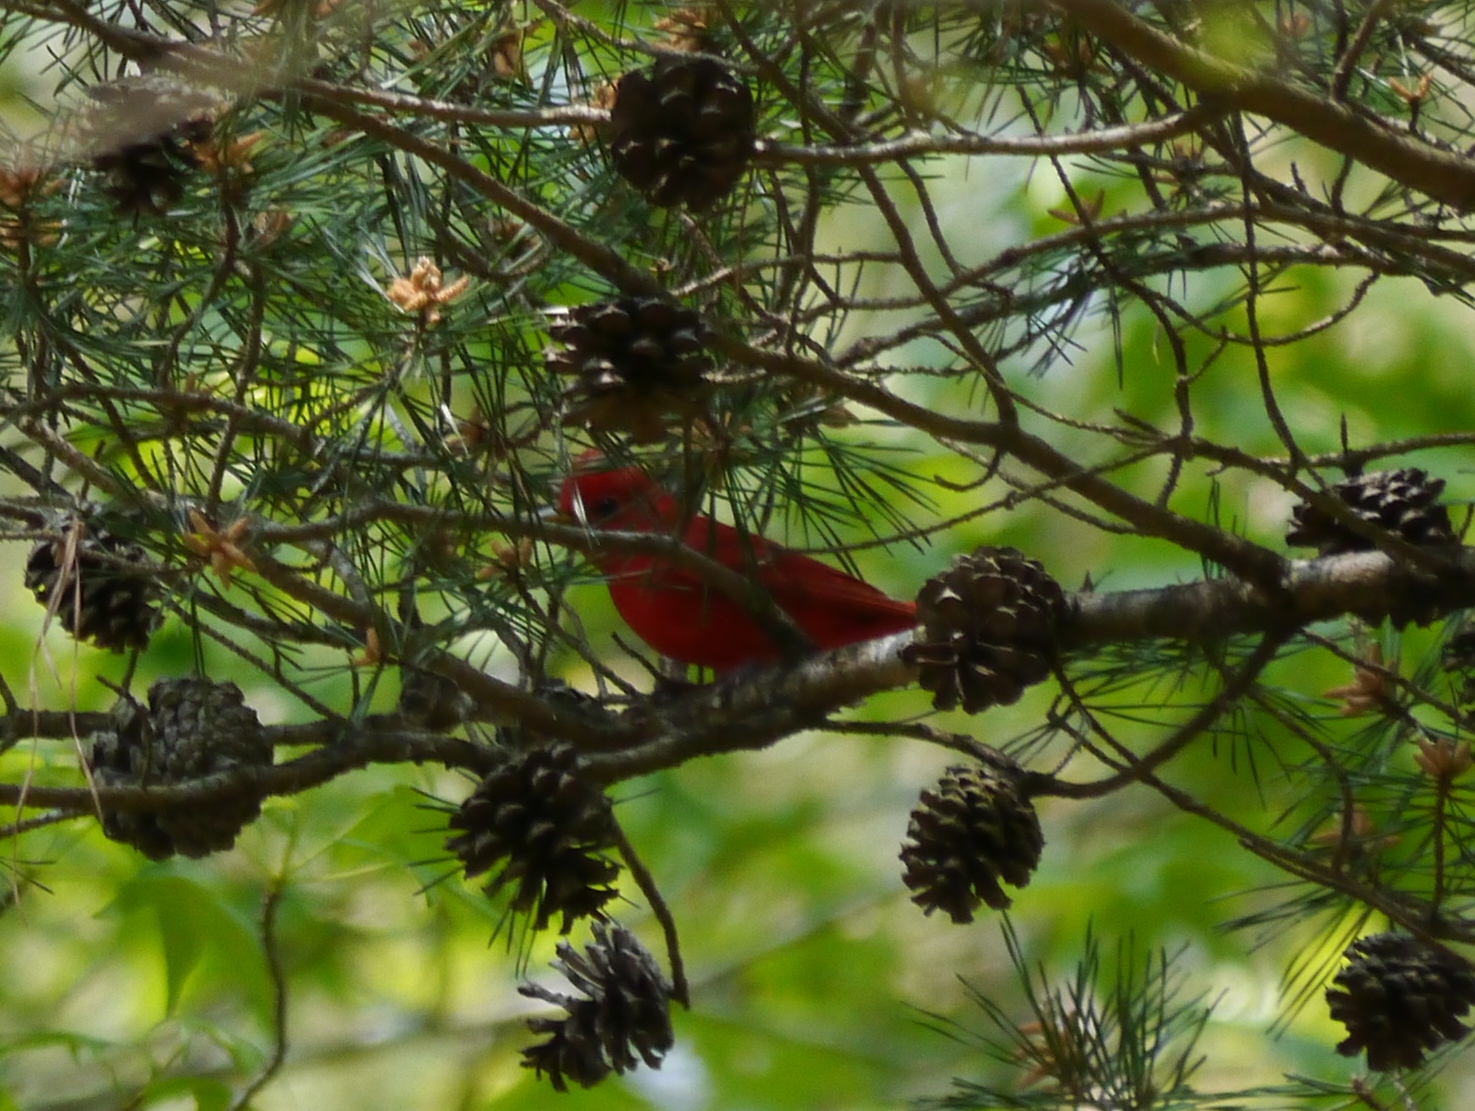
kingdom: Animalia
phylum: Chordata
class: Aves
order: Passeriformes
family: Cardinalidae
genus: Piranga
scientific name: Piranga rubra
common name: Summer tanager
